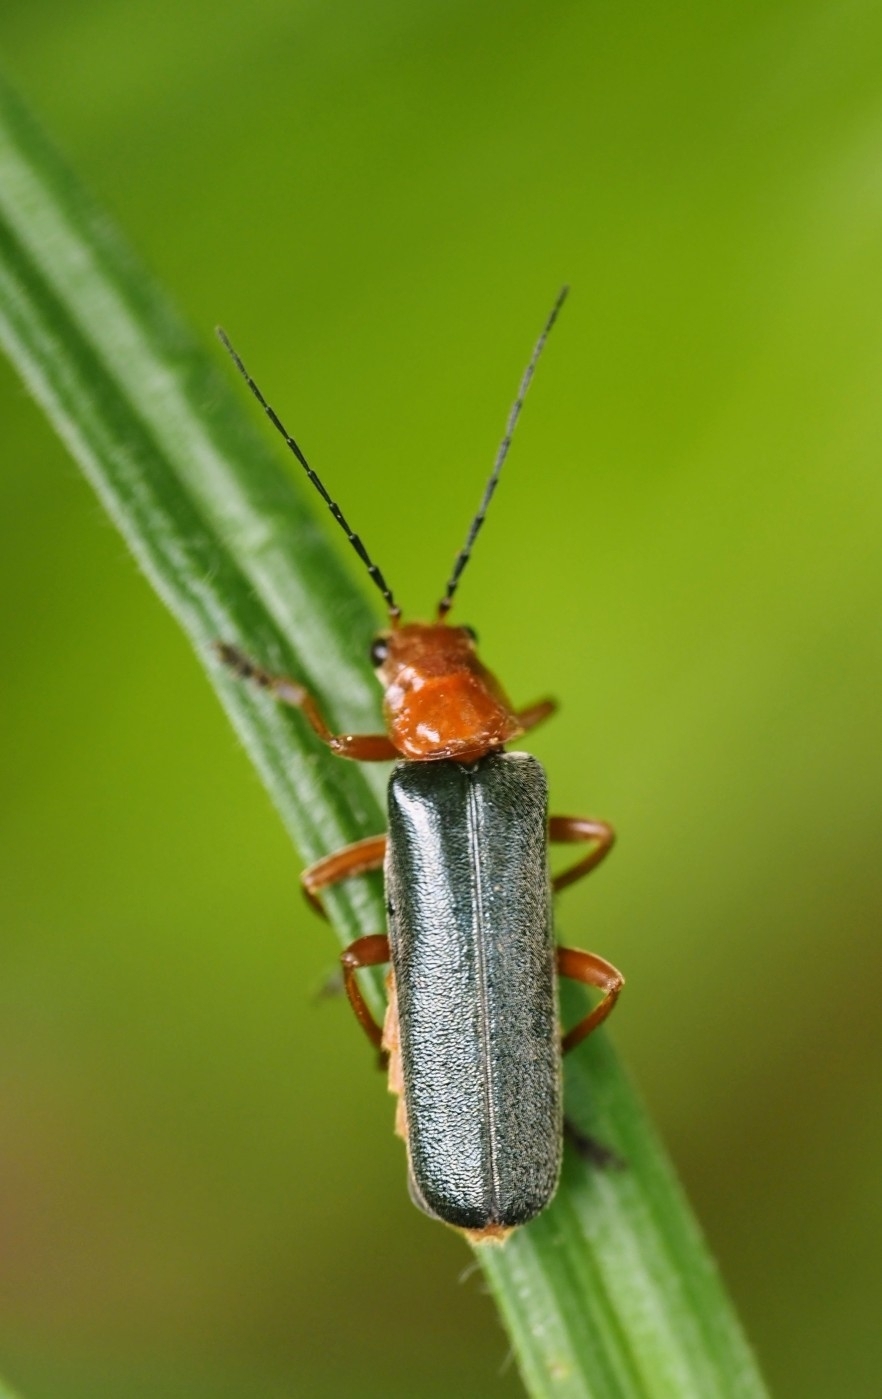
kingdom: Animalia
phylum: Arthropoda
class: Insecta
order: Coleoptera
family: Cantharidae
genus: Ancistronycha
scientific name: Ancistronycha tigurina
